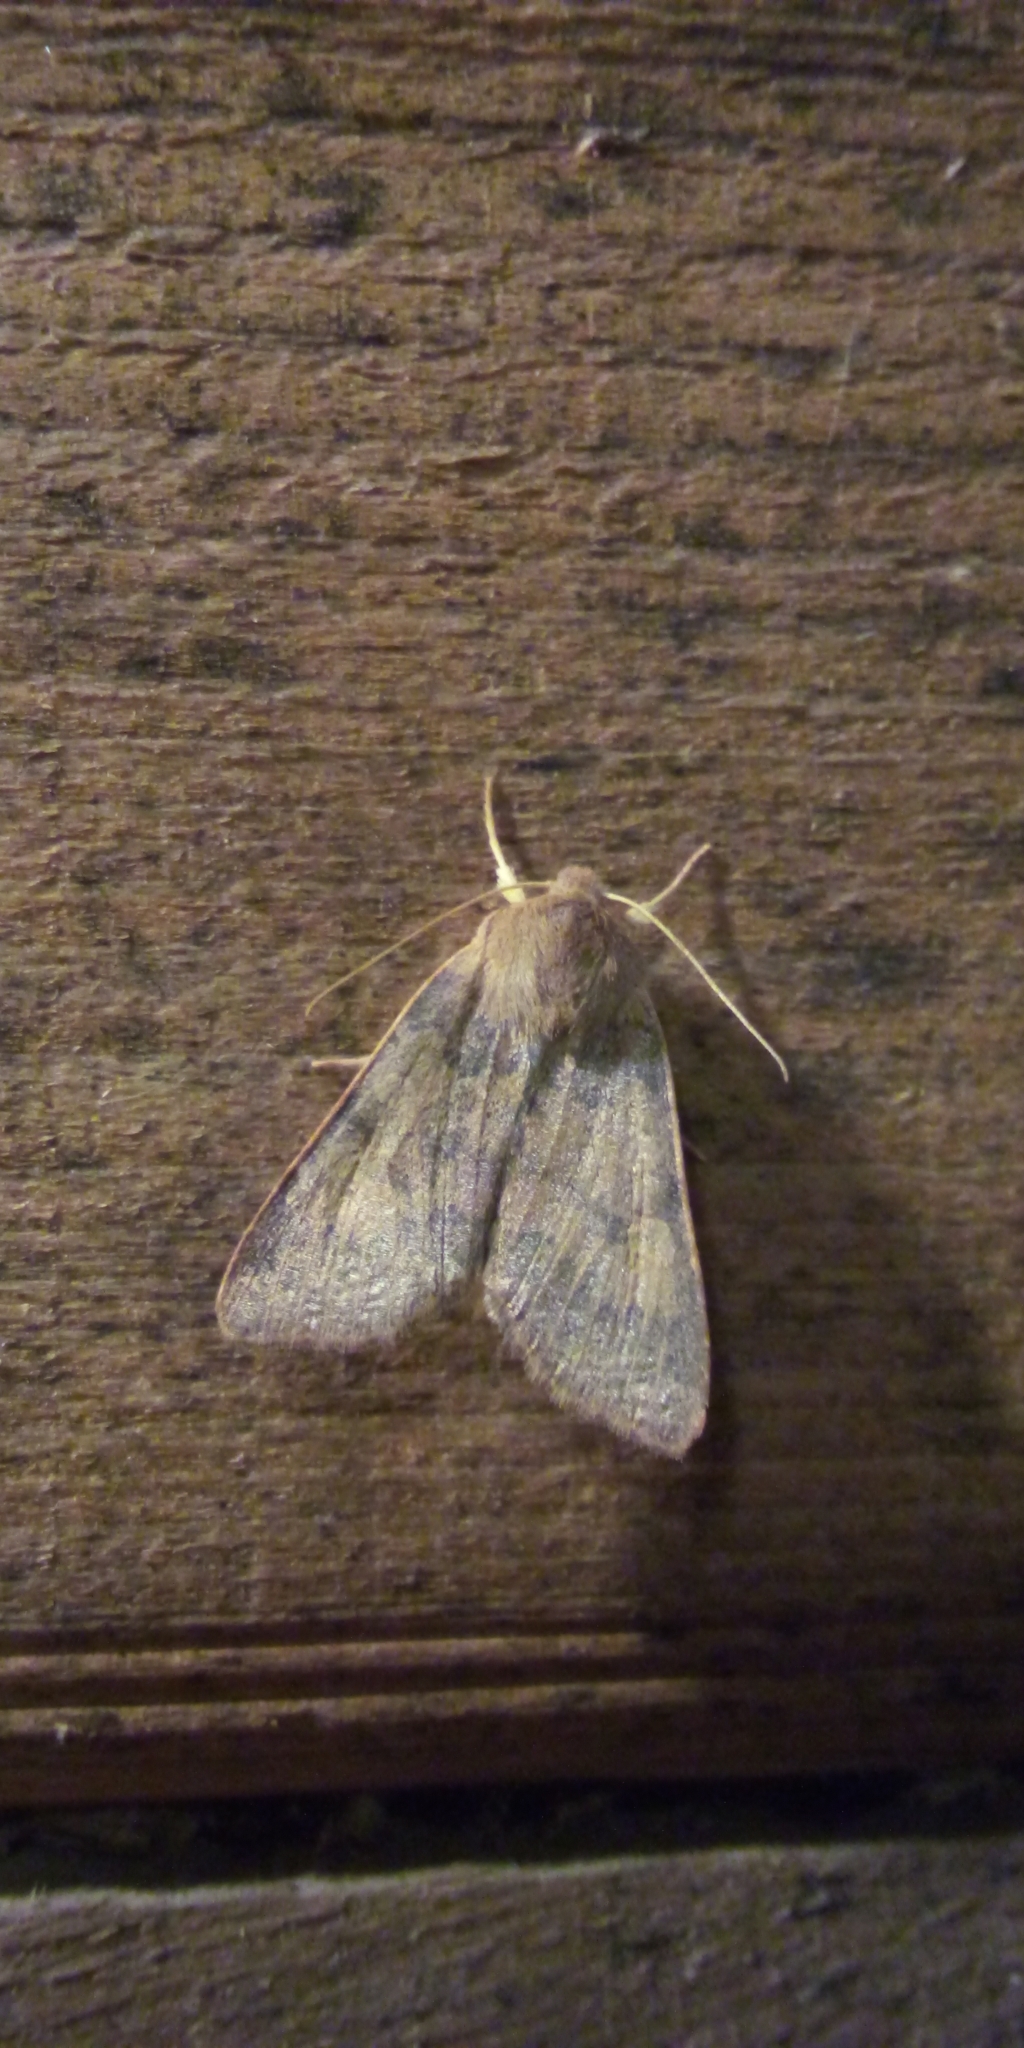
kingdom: Animalia
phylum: Arthropoda
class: Insecta
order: Lepidoptera
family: Noctuidae
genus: Agrochola
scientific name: Agrochola helvola
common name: Flounced chestnut
